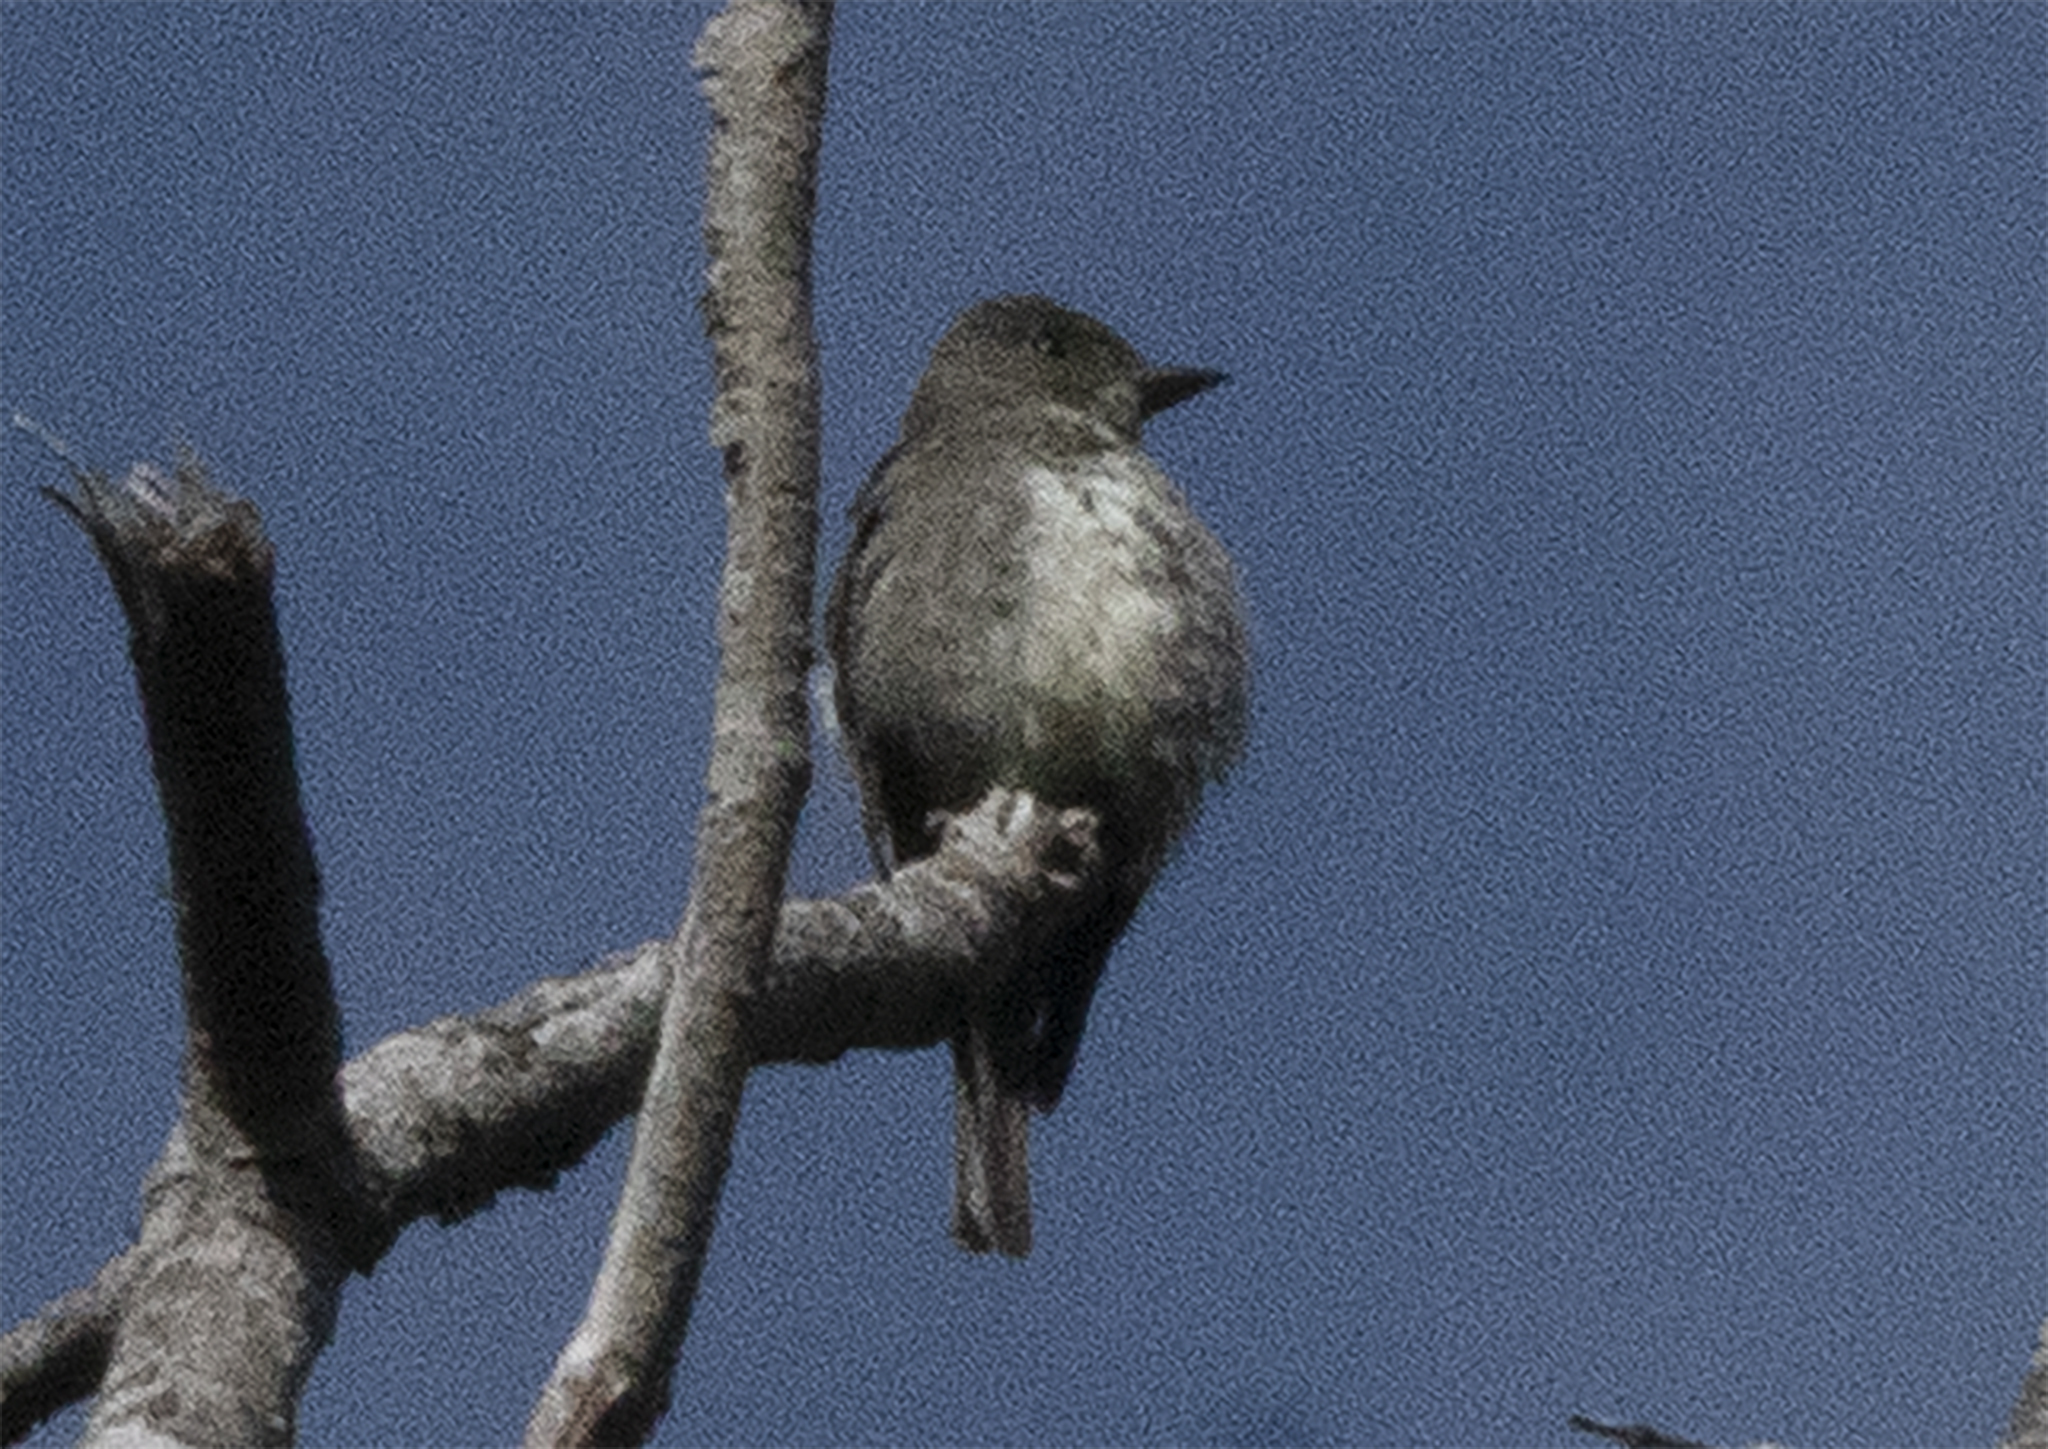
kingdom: Animalia
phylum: Chordata
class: Aves
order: Passeriformes
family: Tyrannidae
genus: Contopus
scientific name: Contopus cooperi
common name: Olive-sided flycatcher
